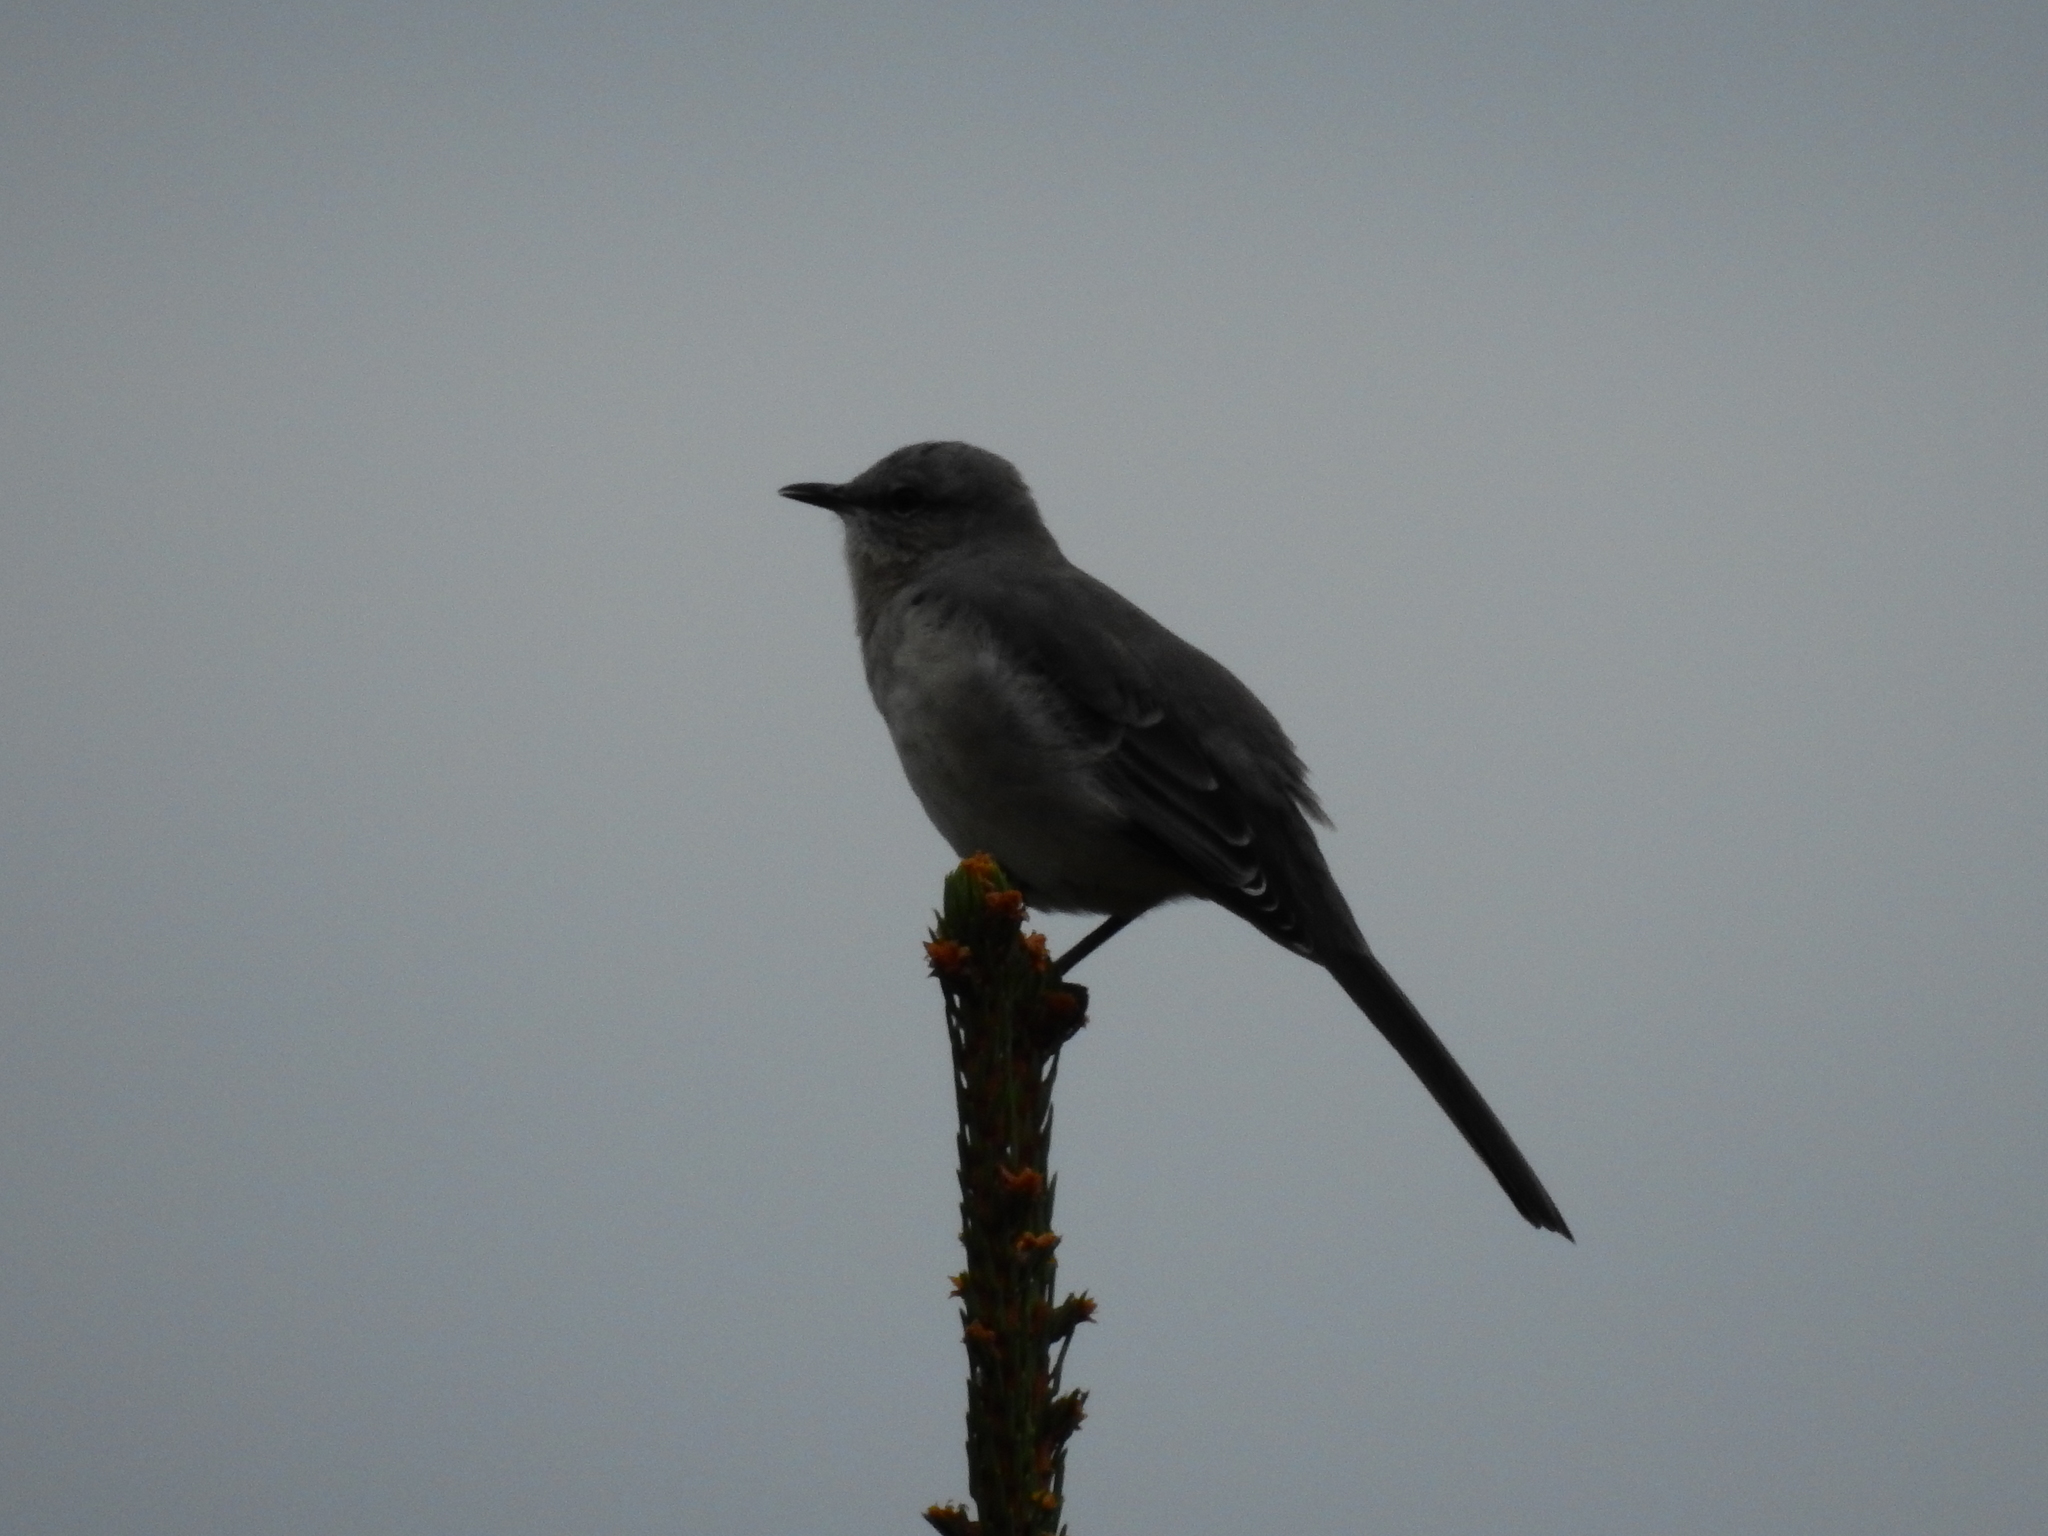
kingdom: Animalia
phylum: Chordata
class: Aves
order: Passeriformes
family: Mimidae
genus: Mimus
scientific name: Mimus polyglottos
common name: Northern mockingbird
